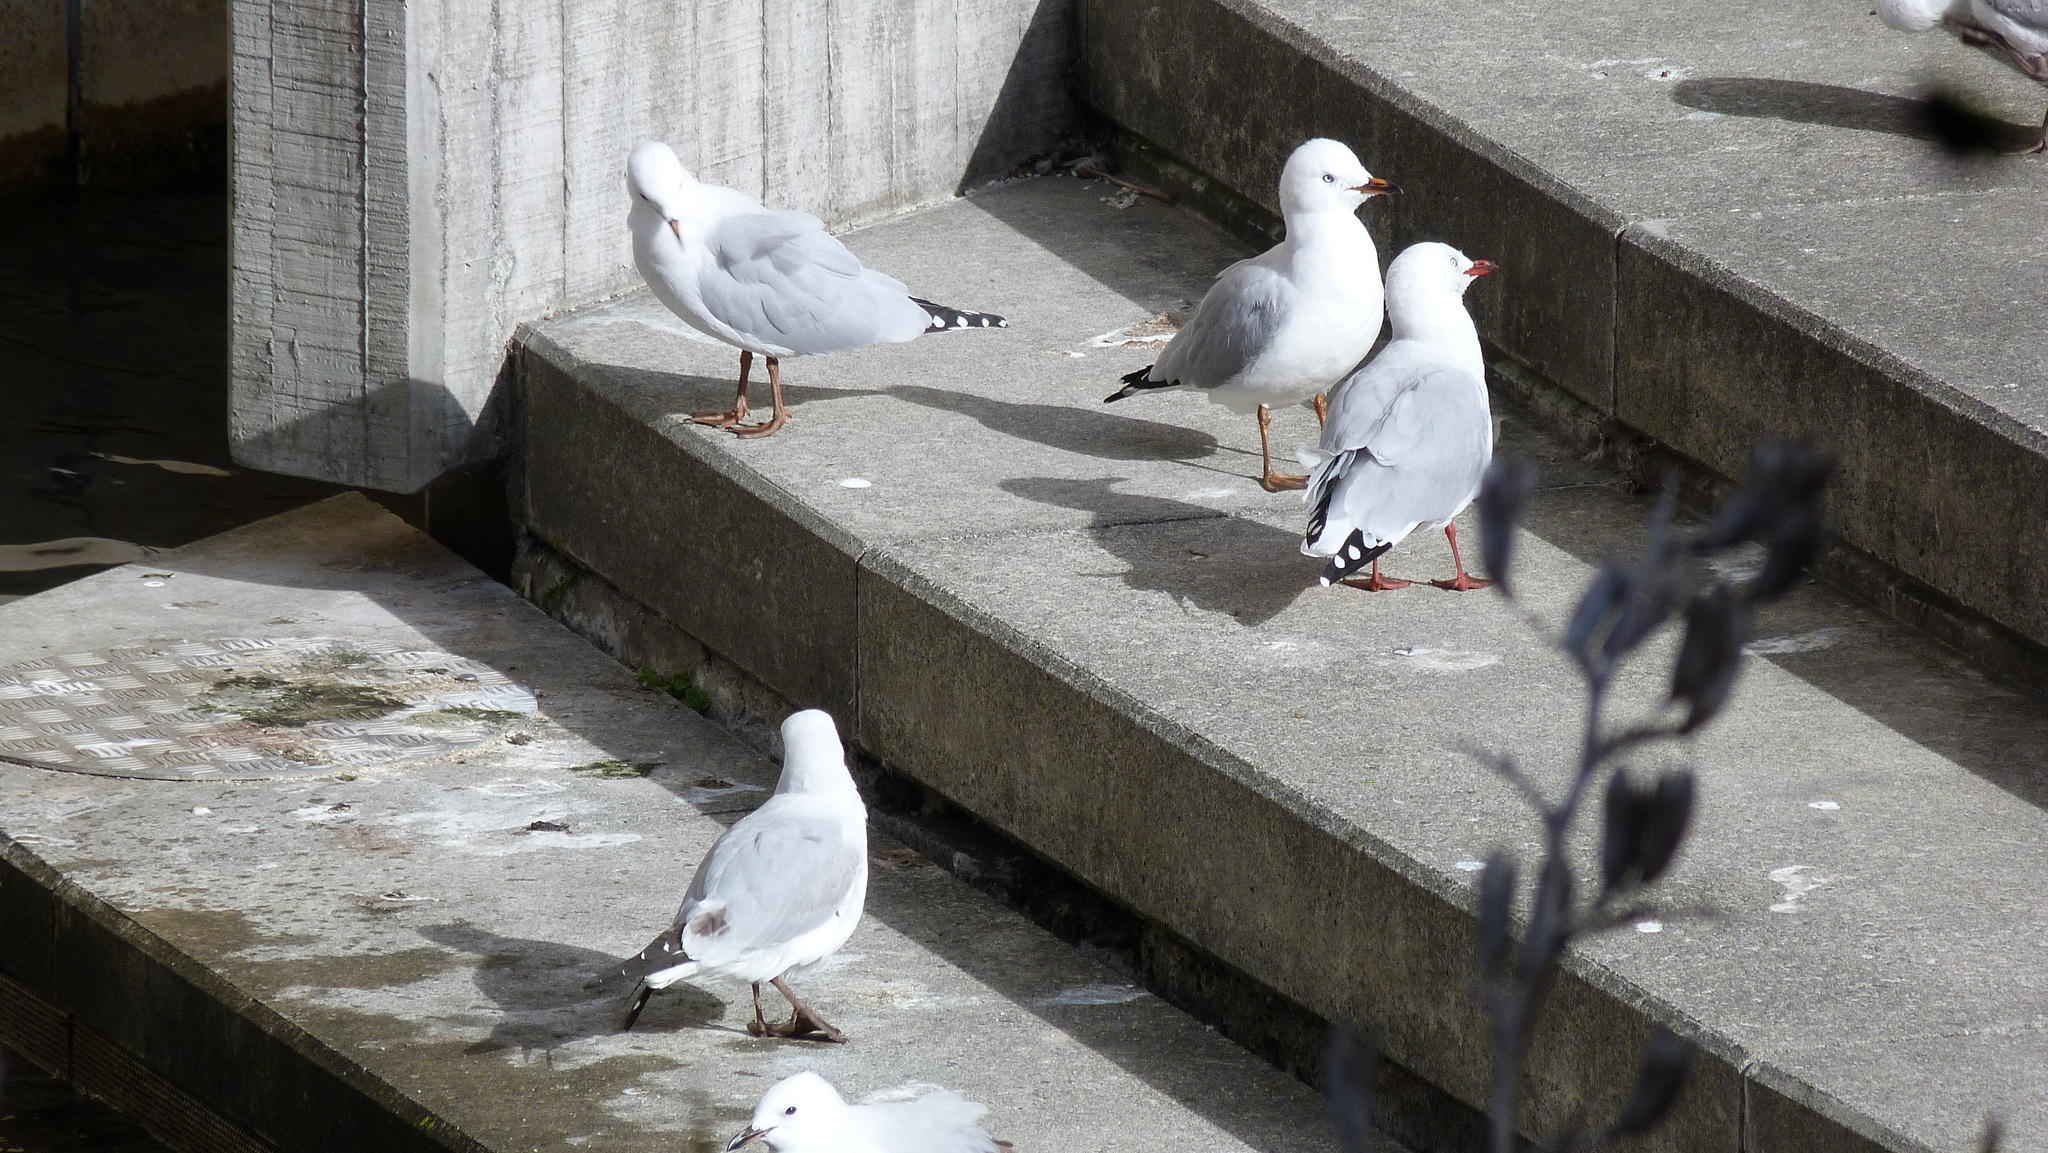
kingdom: Animalia
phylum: Chordata
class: Aves
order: Charadriiformes
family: Laridae
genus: Chroicocephalus
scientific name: Chroicocephalus novaehollandiae
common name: Silver gull
